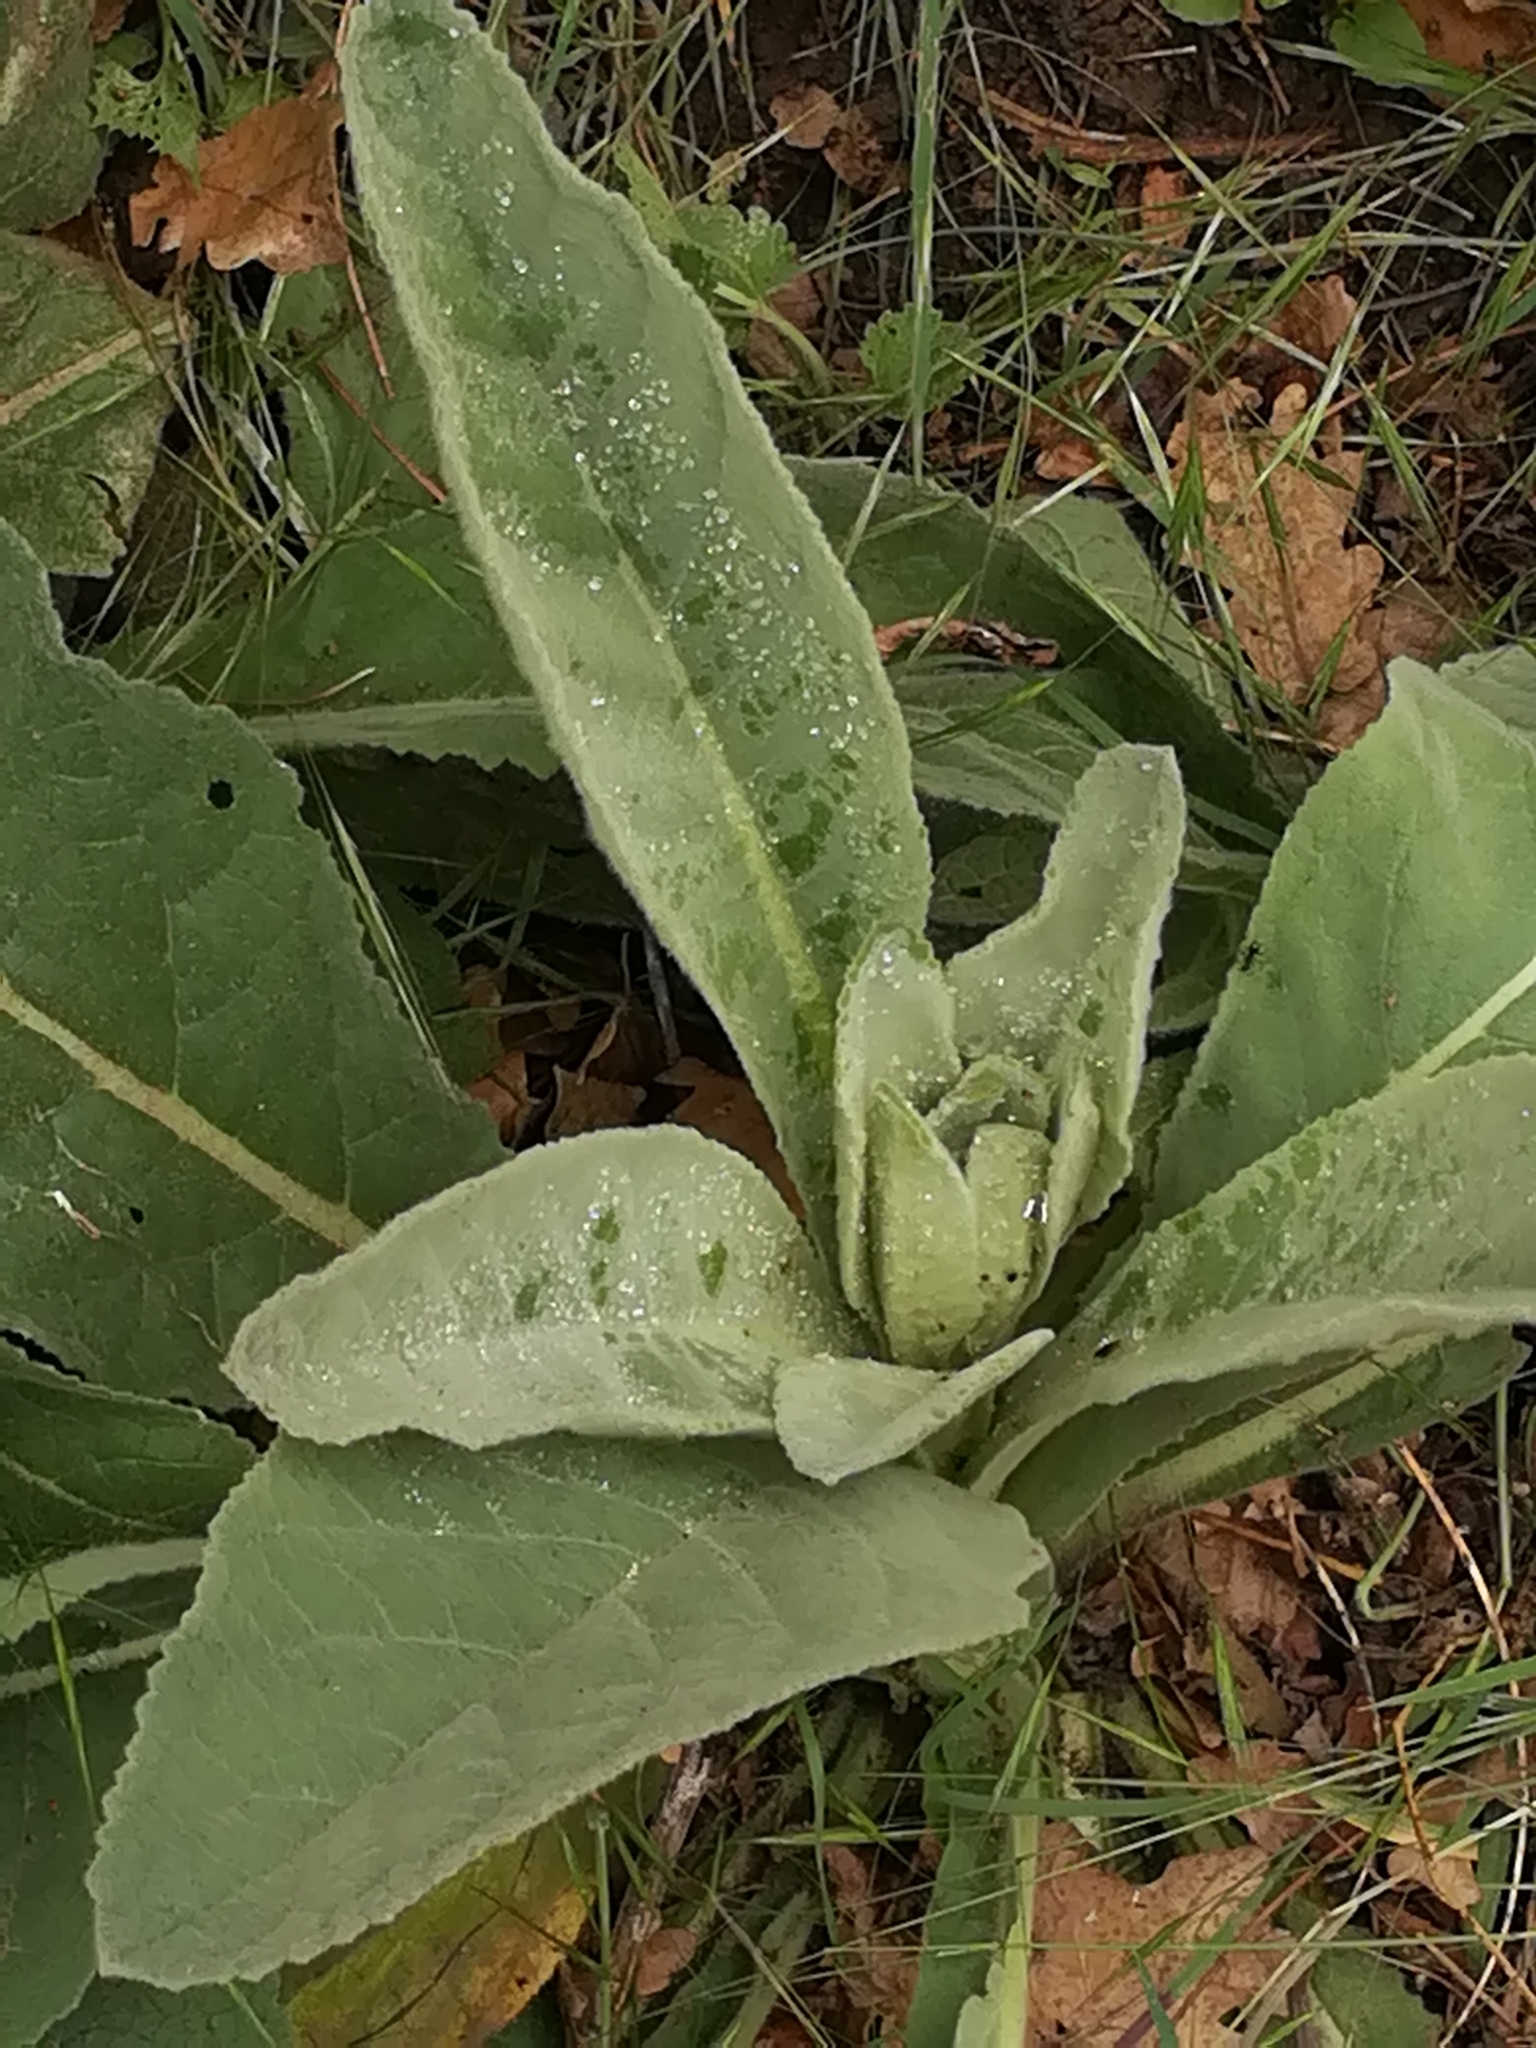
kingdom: Plantae
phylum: Tracheophyta
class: Magnoliopsida
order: Lamiales
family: Scrophulariaceae
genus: Verbascum
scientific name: Verbascum thapsus
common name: Common mullein
